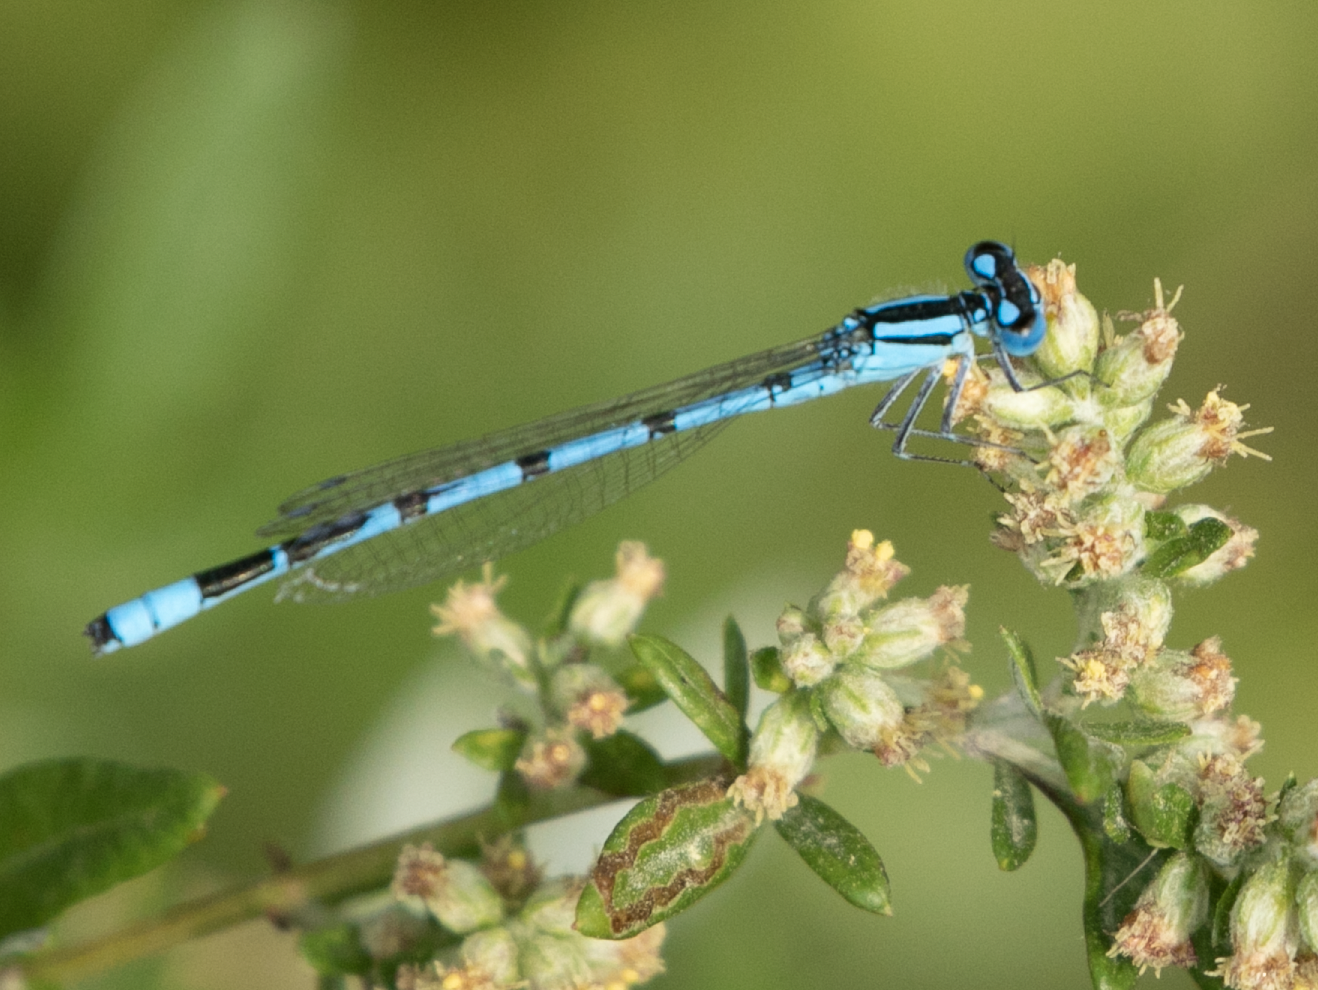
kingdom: Animalia
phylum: Arthropoda
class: Insecta
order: Odonata
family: Coenagrionidae
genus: Enallagma
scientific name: Enallagma cyathigerum
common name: Common blue damselfly
